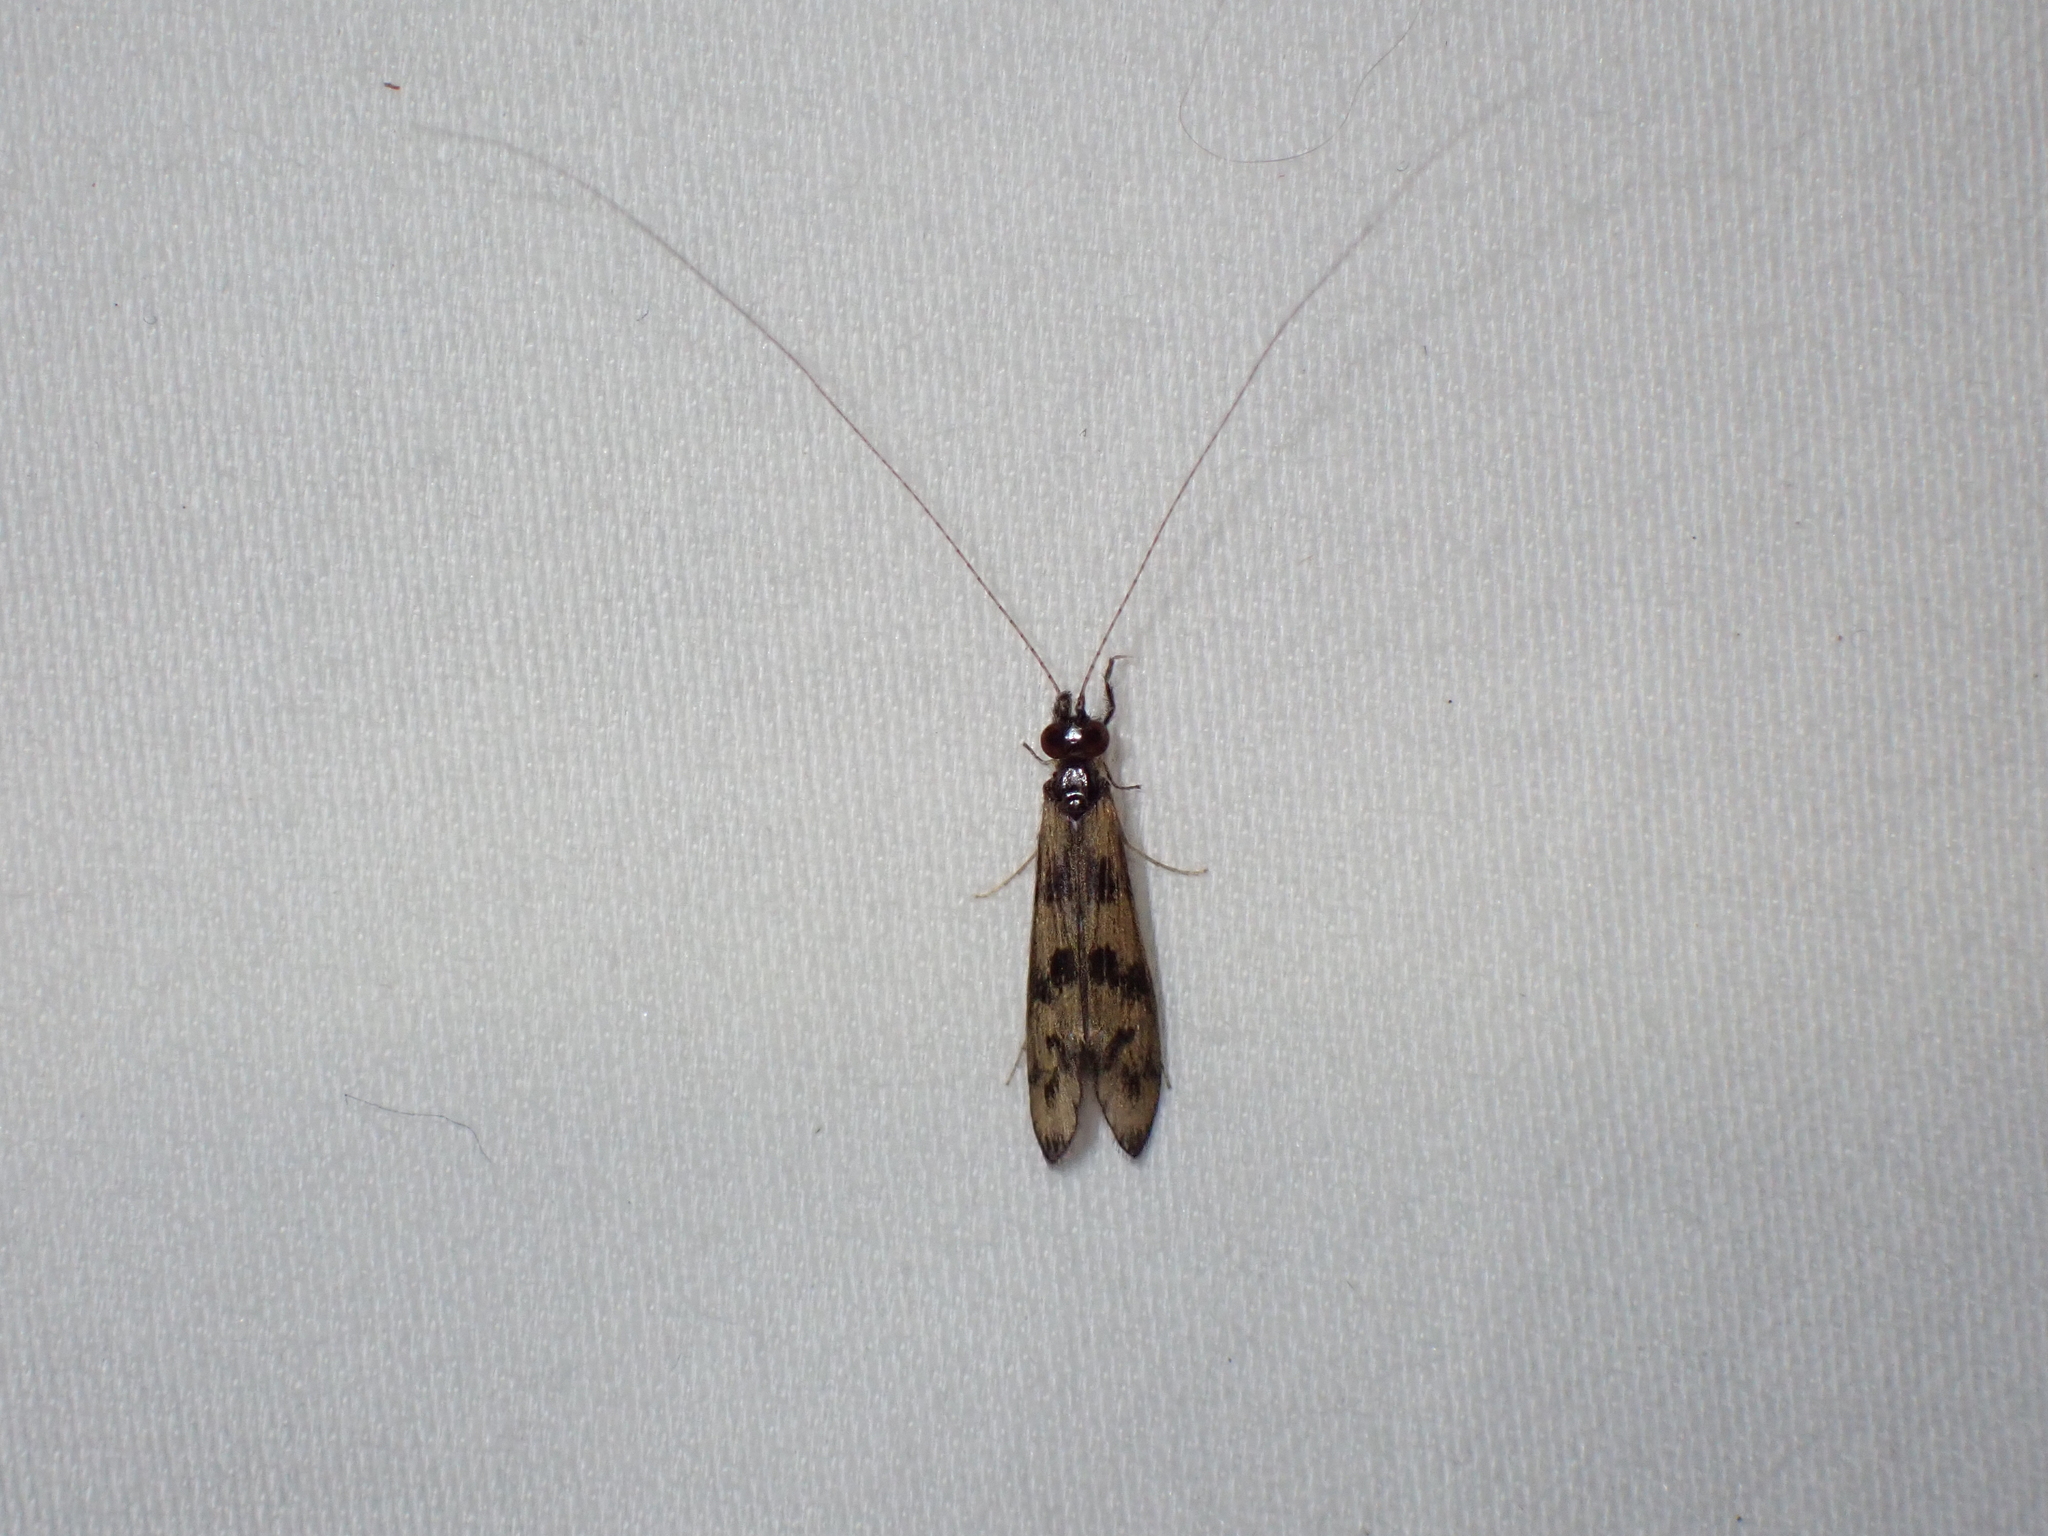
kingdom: Animalia
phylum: Arthropoda
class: Insecta
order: Trichoptera
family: Leptoceridae
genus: Mystacides
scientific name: Mystacides longicornis
